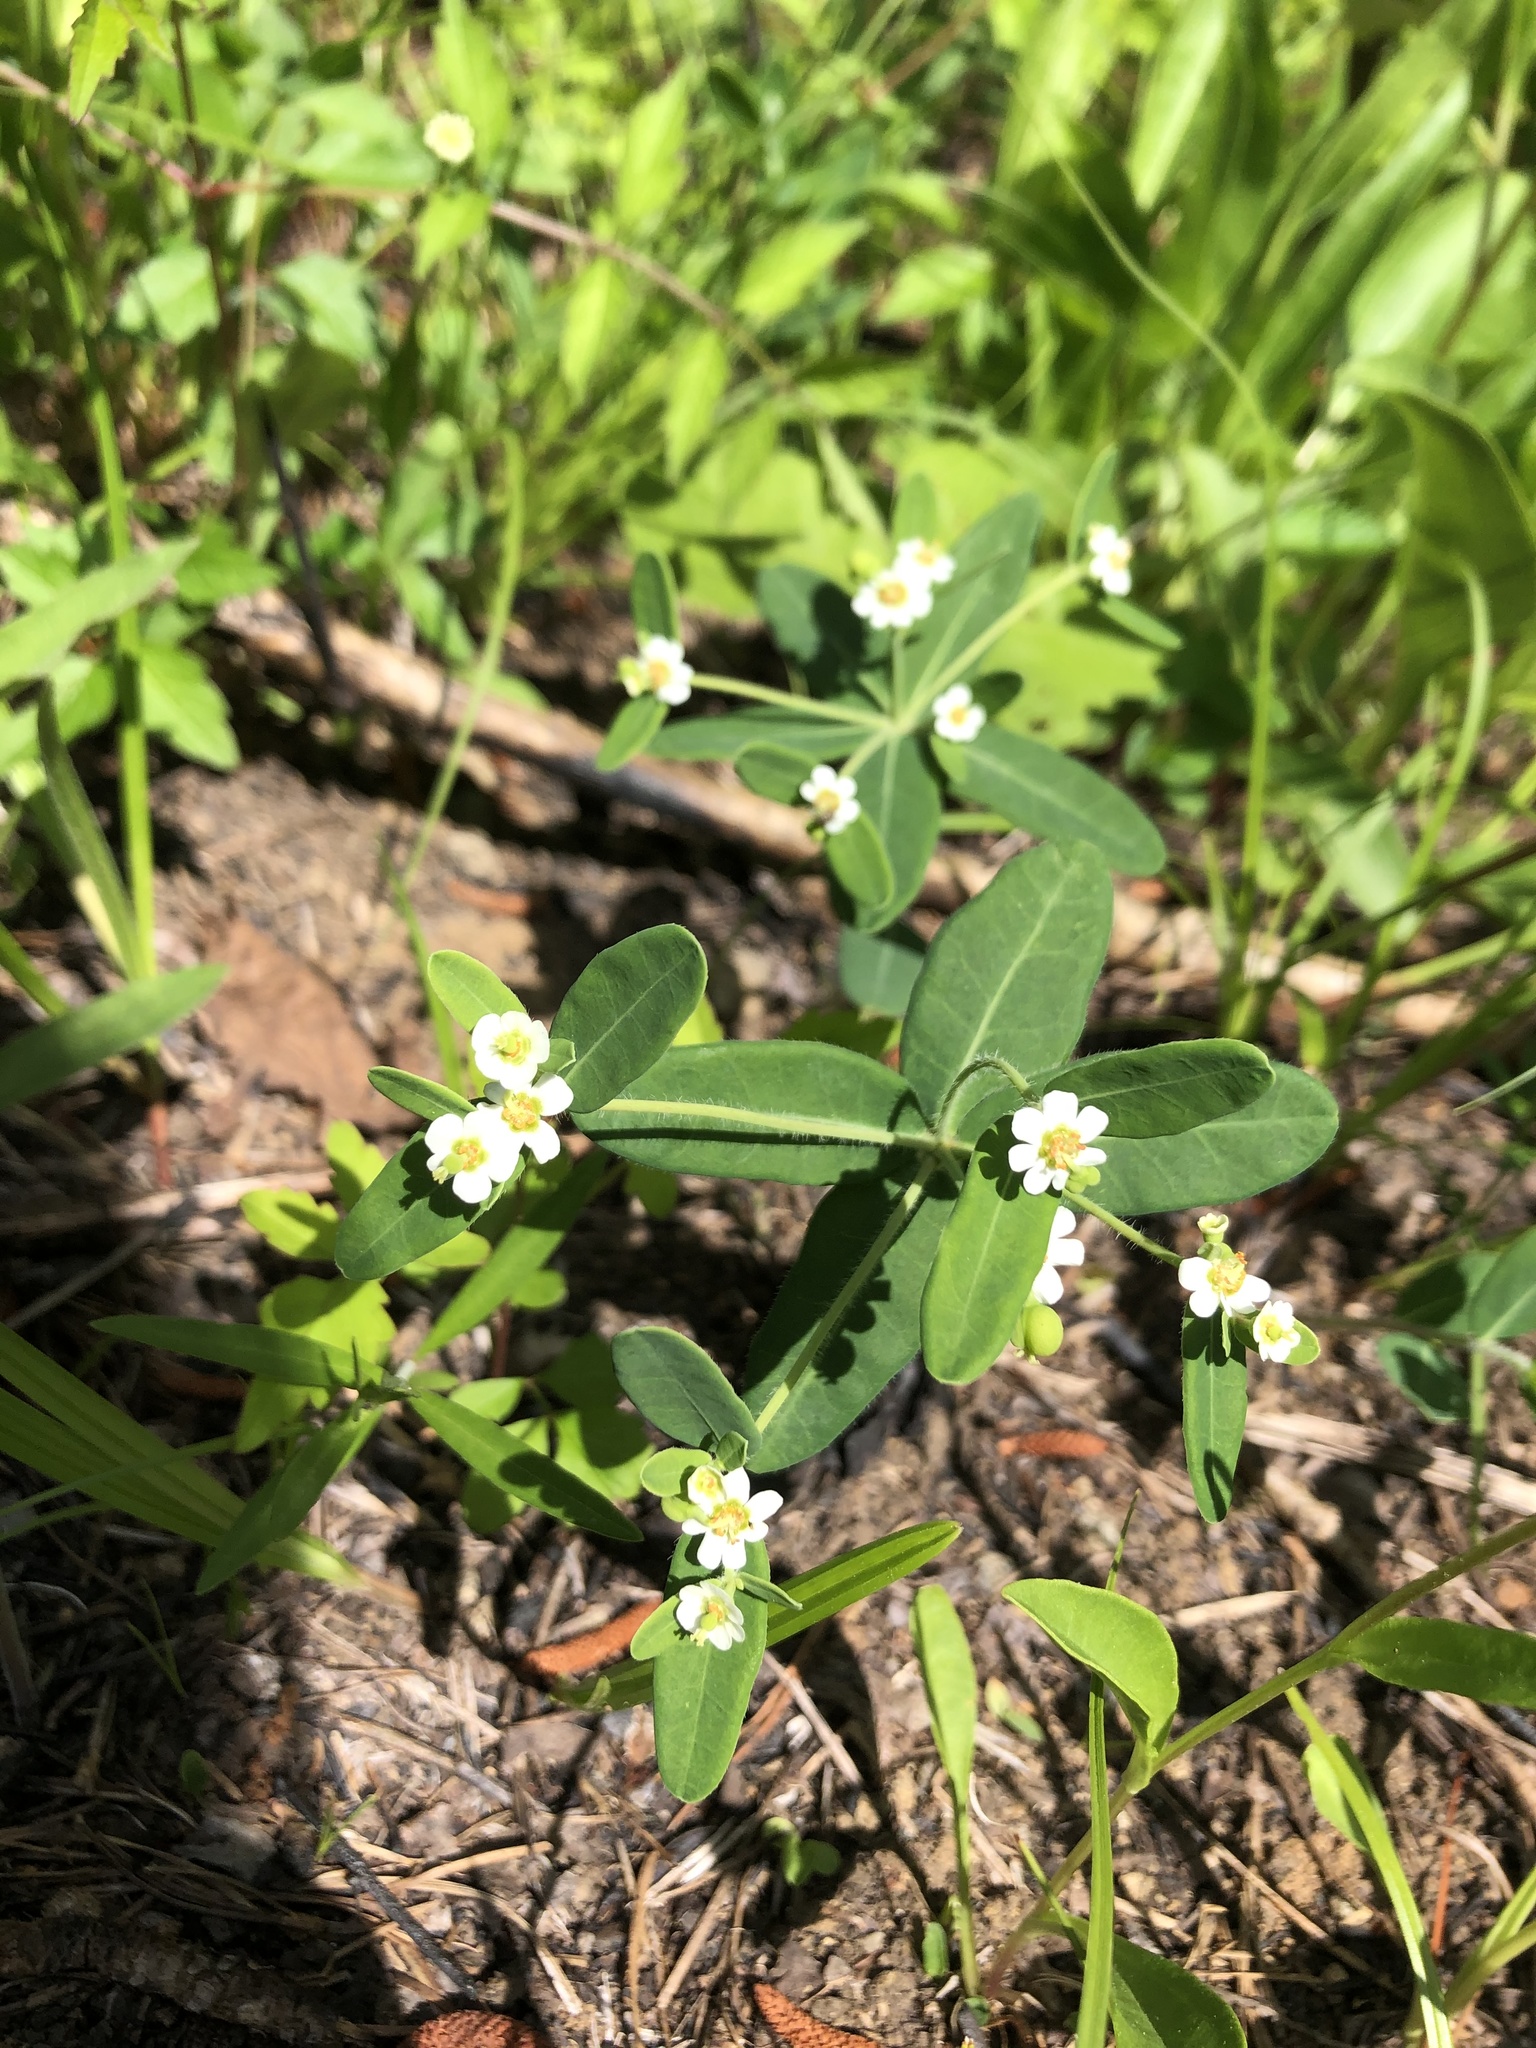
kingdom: Plantae
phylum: Tracheophyta
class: Magnoliopsida
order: Malpighiales
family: Euphorbiaceae
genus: Euphorbia
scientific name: Euphorbia corollata
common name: Flowering spurge
